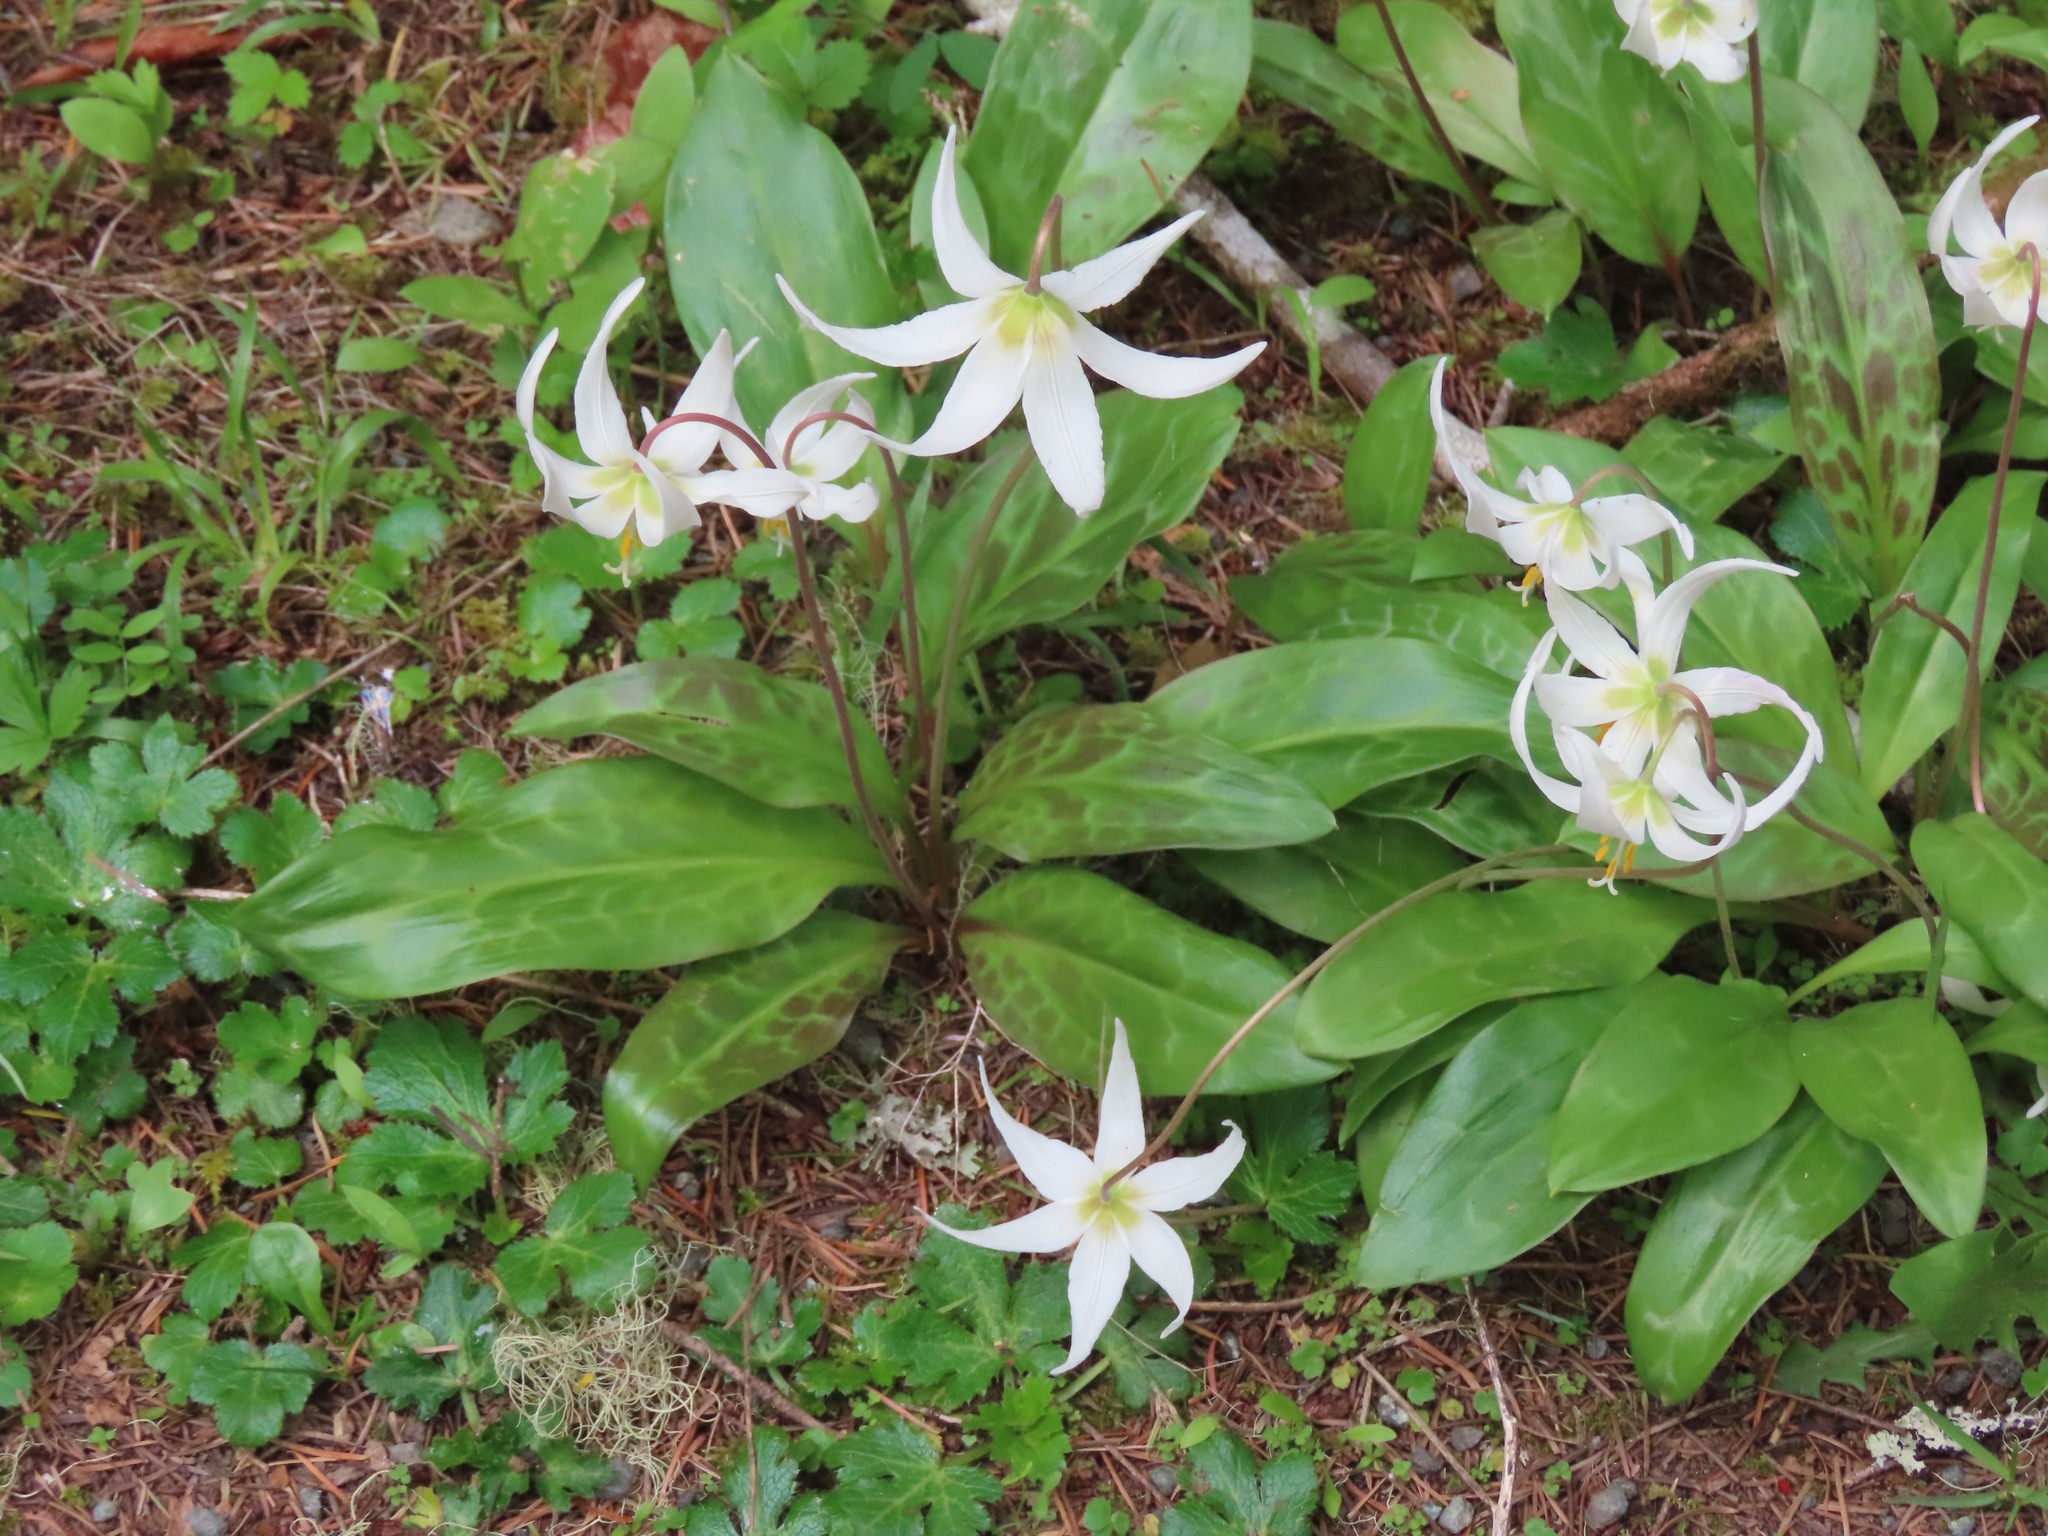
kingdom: Plantae
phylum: Tracheophyta
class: Liliopsida
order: Liliales
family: Liliaceae
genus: Erythronium
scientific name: Erythronium oregonum
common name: Giant adder's-tongue
